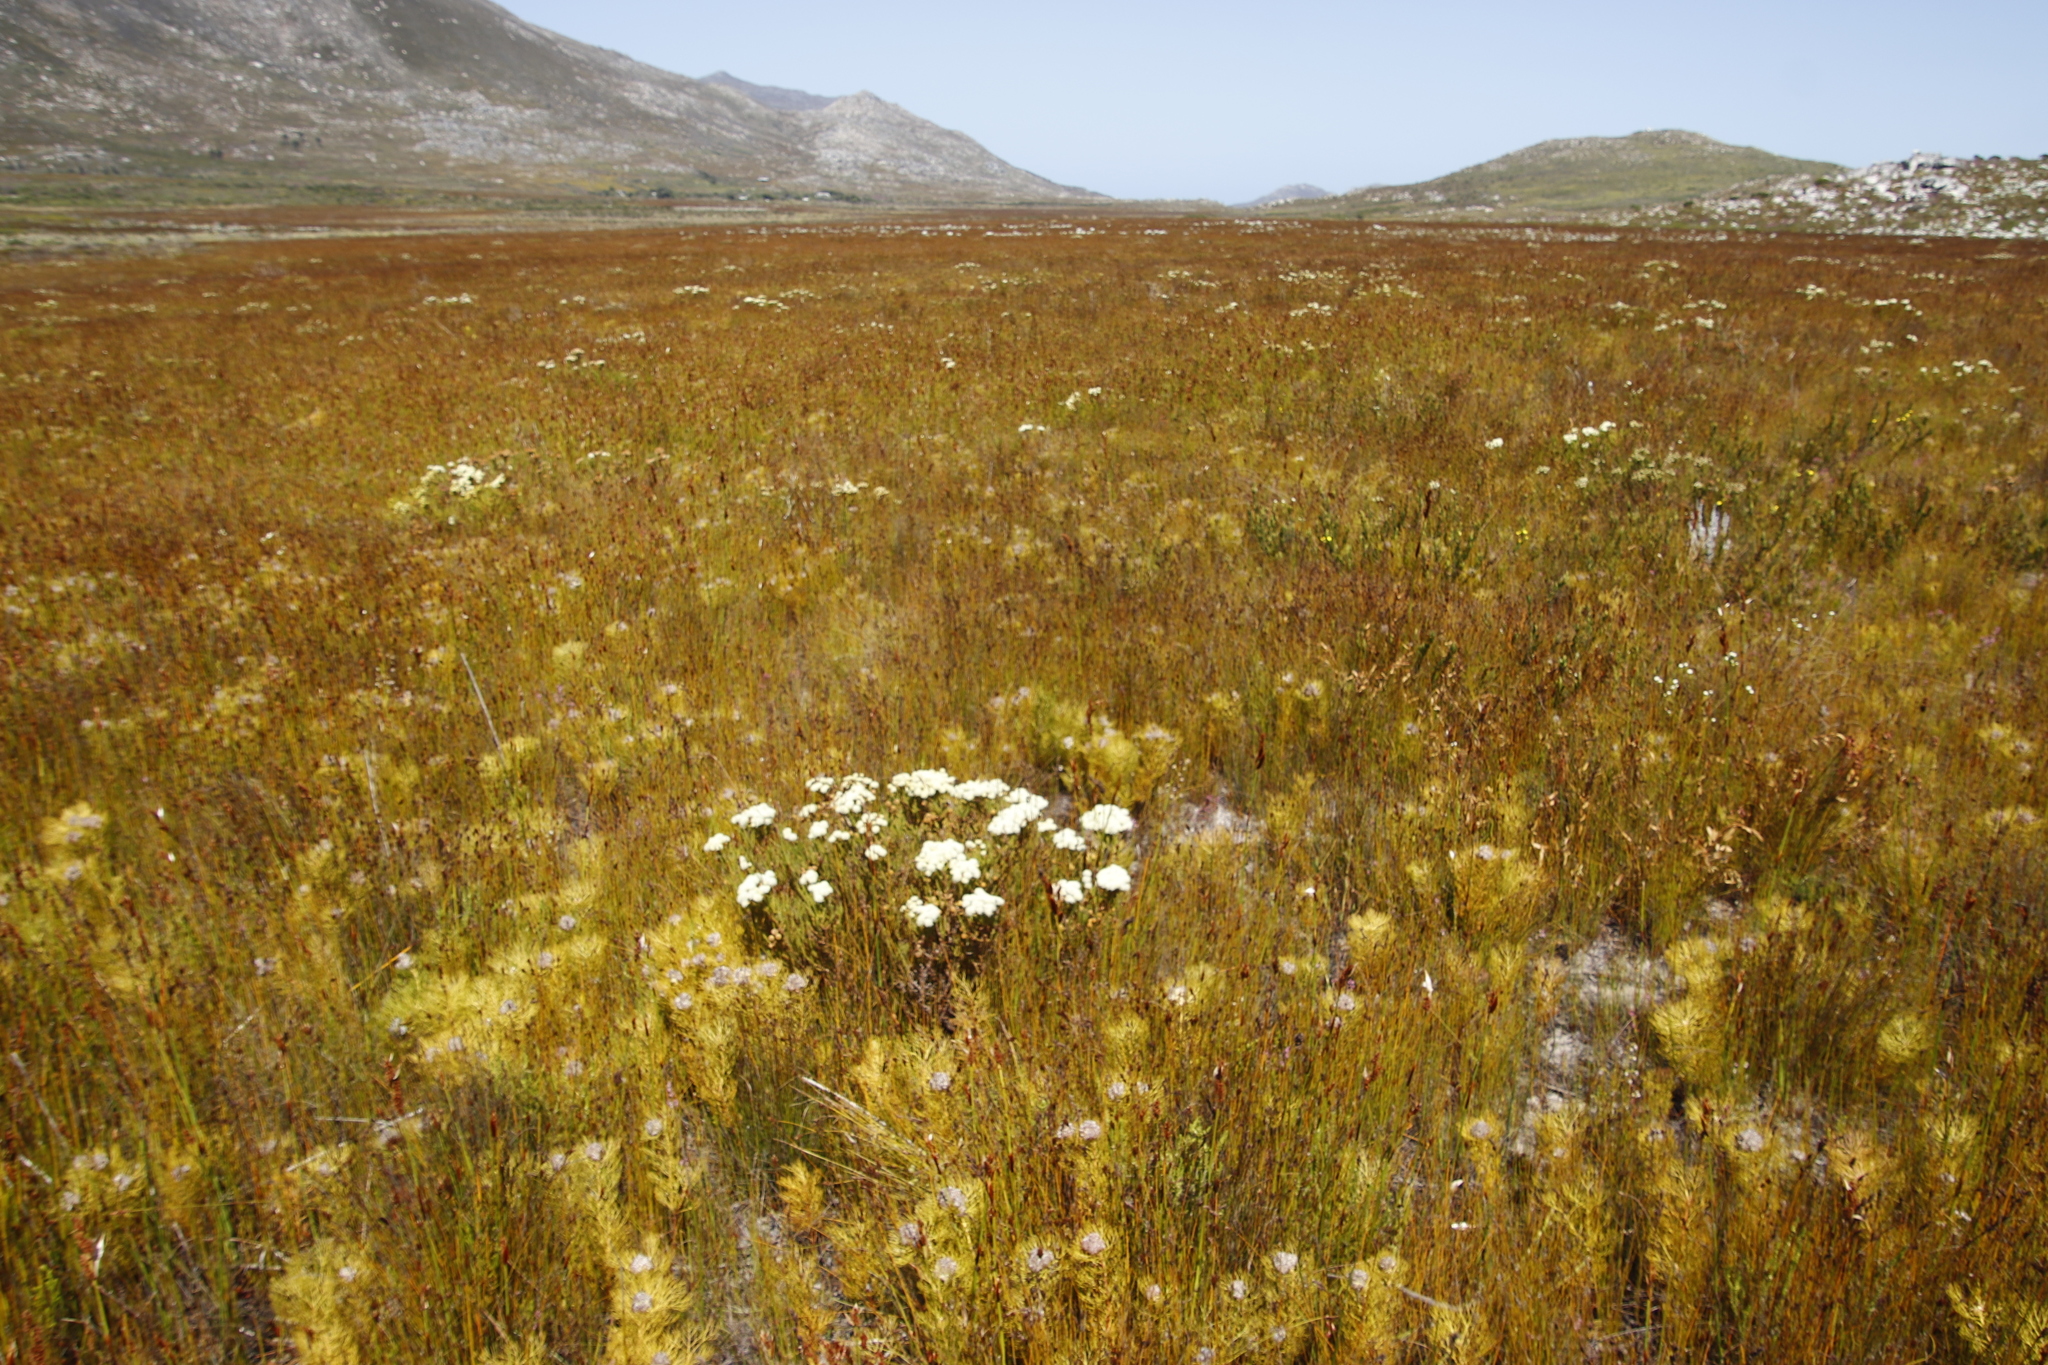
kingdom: Plantae
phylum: Tracheophyta
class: Magnoliopsida
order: Bruniales
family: Bruniaceae
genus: Berzelia
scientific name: Berzelia abrotanoides
